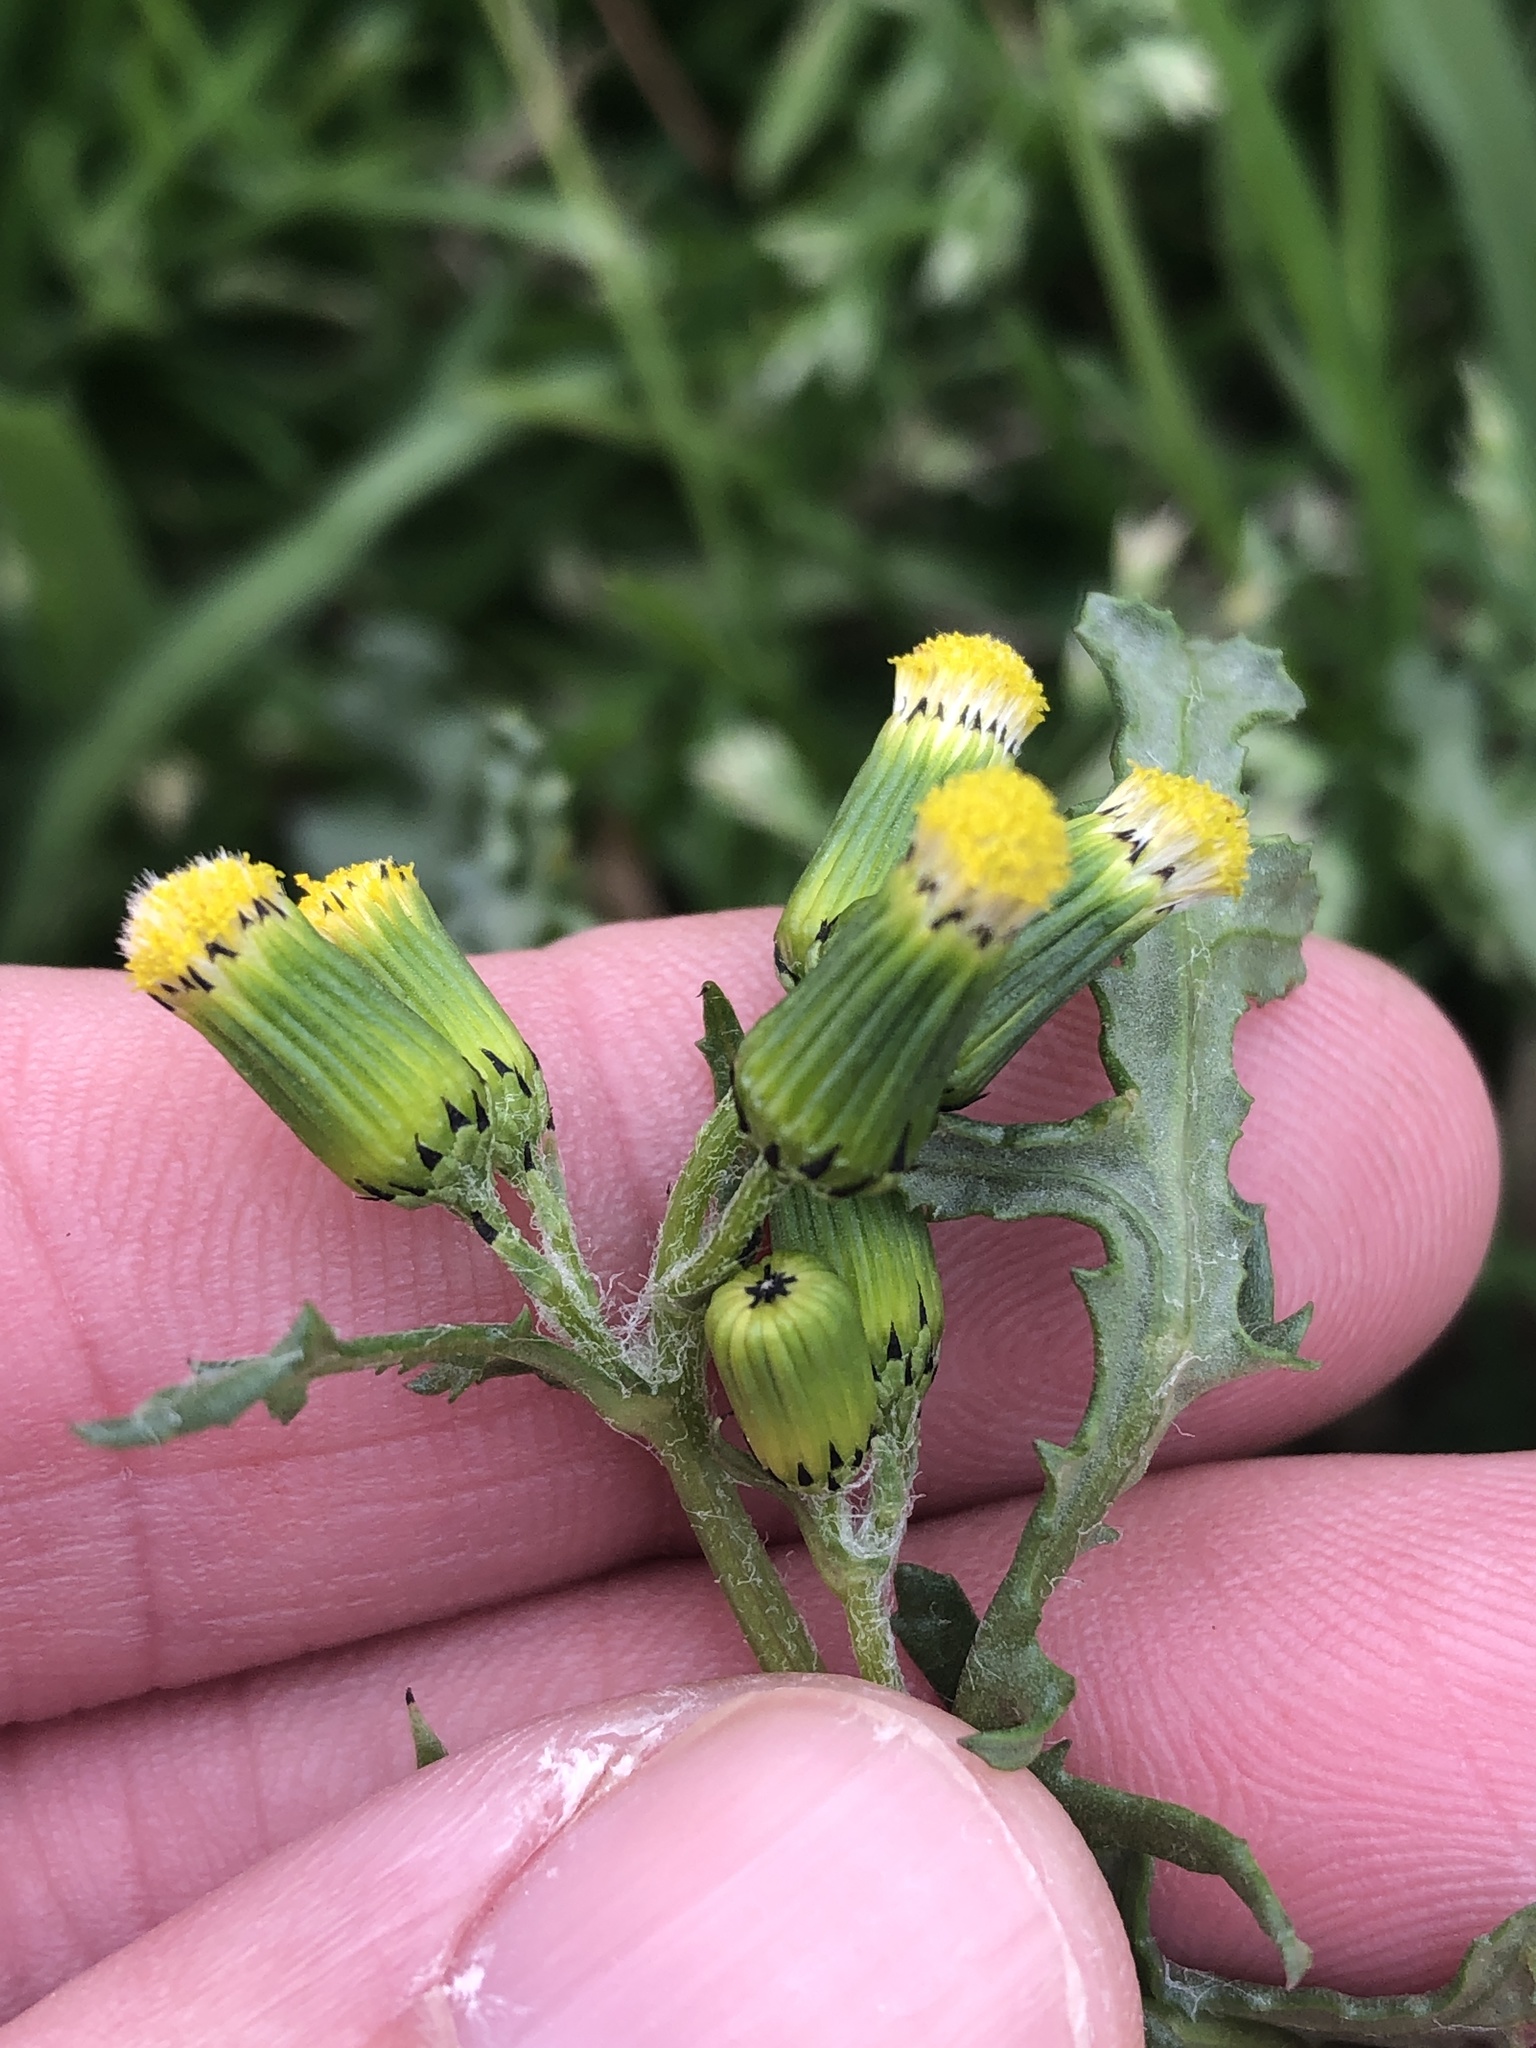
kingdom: Plantae
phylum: Tracheophyta
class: Magnoliopsida
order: Asterales
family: Asteraceae
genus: Senecio
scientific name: Senecio vulgaris
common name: Old-man-in-the-spring
